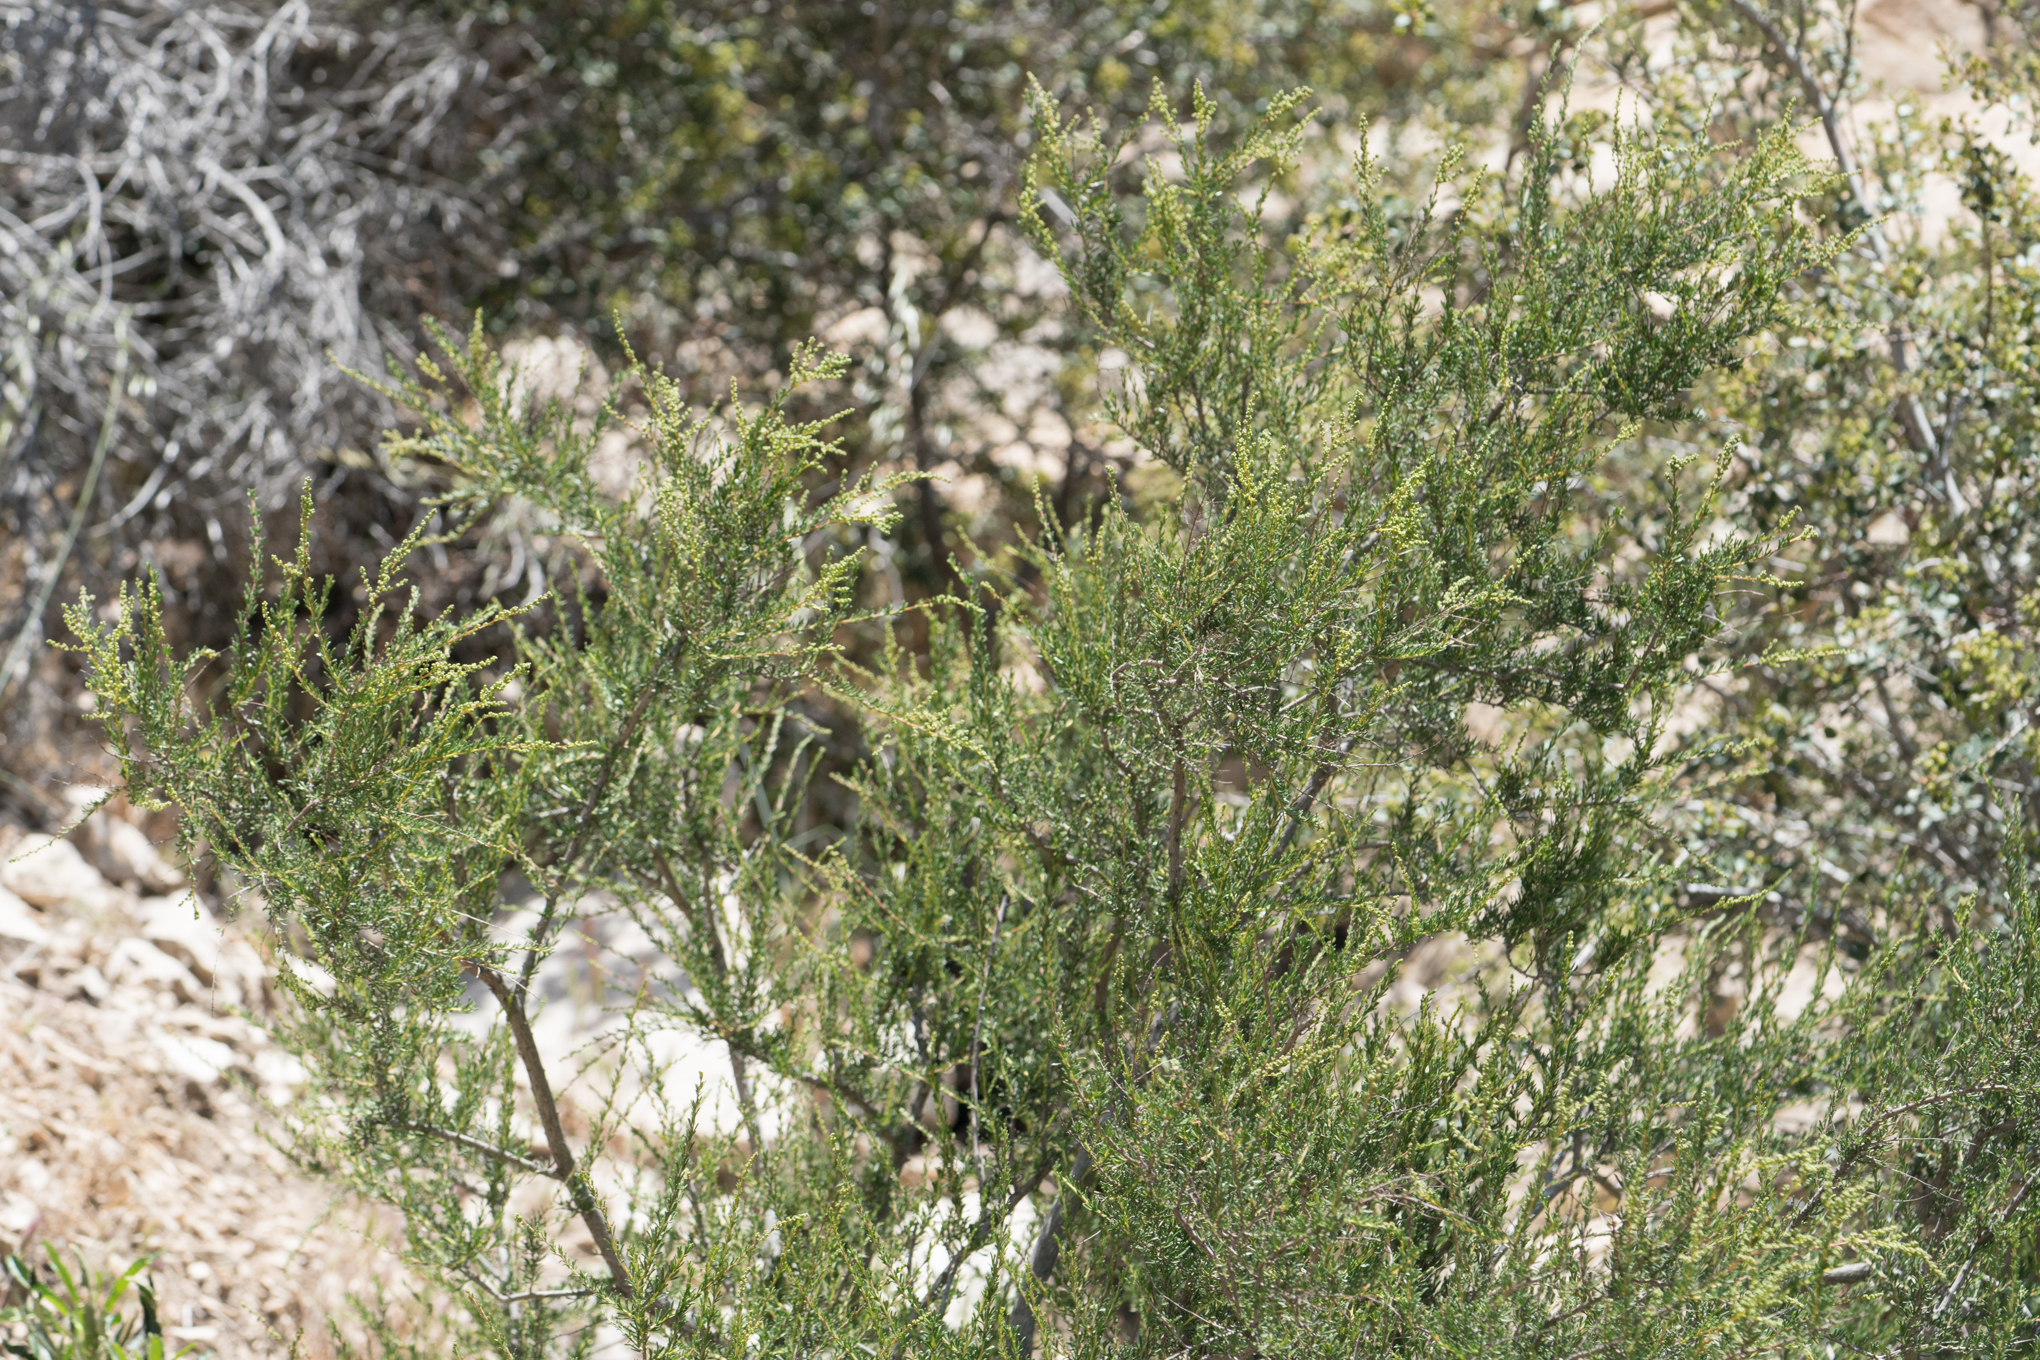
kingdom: Plantae
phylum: Tracheophyta
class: Magnoliopsida
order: Rosales
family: Rosaceae
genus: Adenostoma
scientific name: Adenostoma fasciculatum
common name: Chamise
